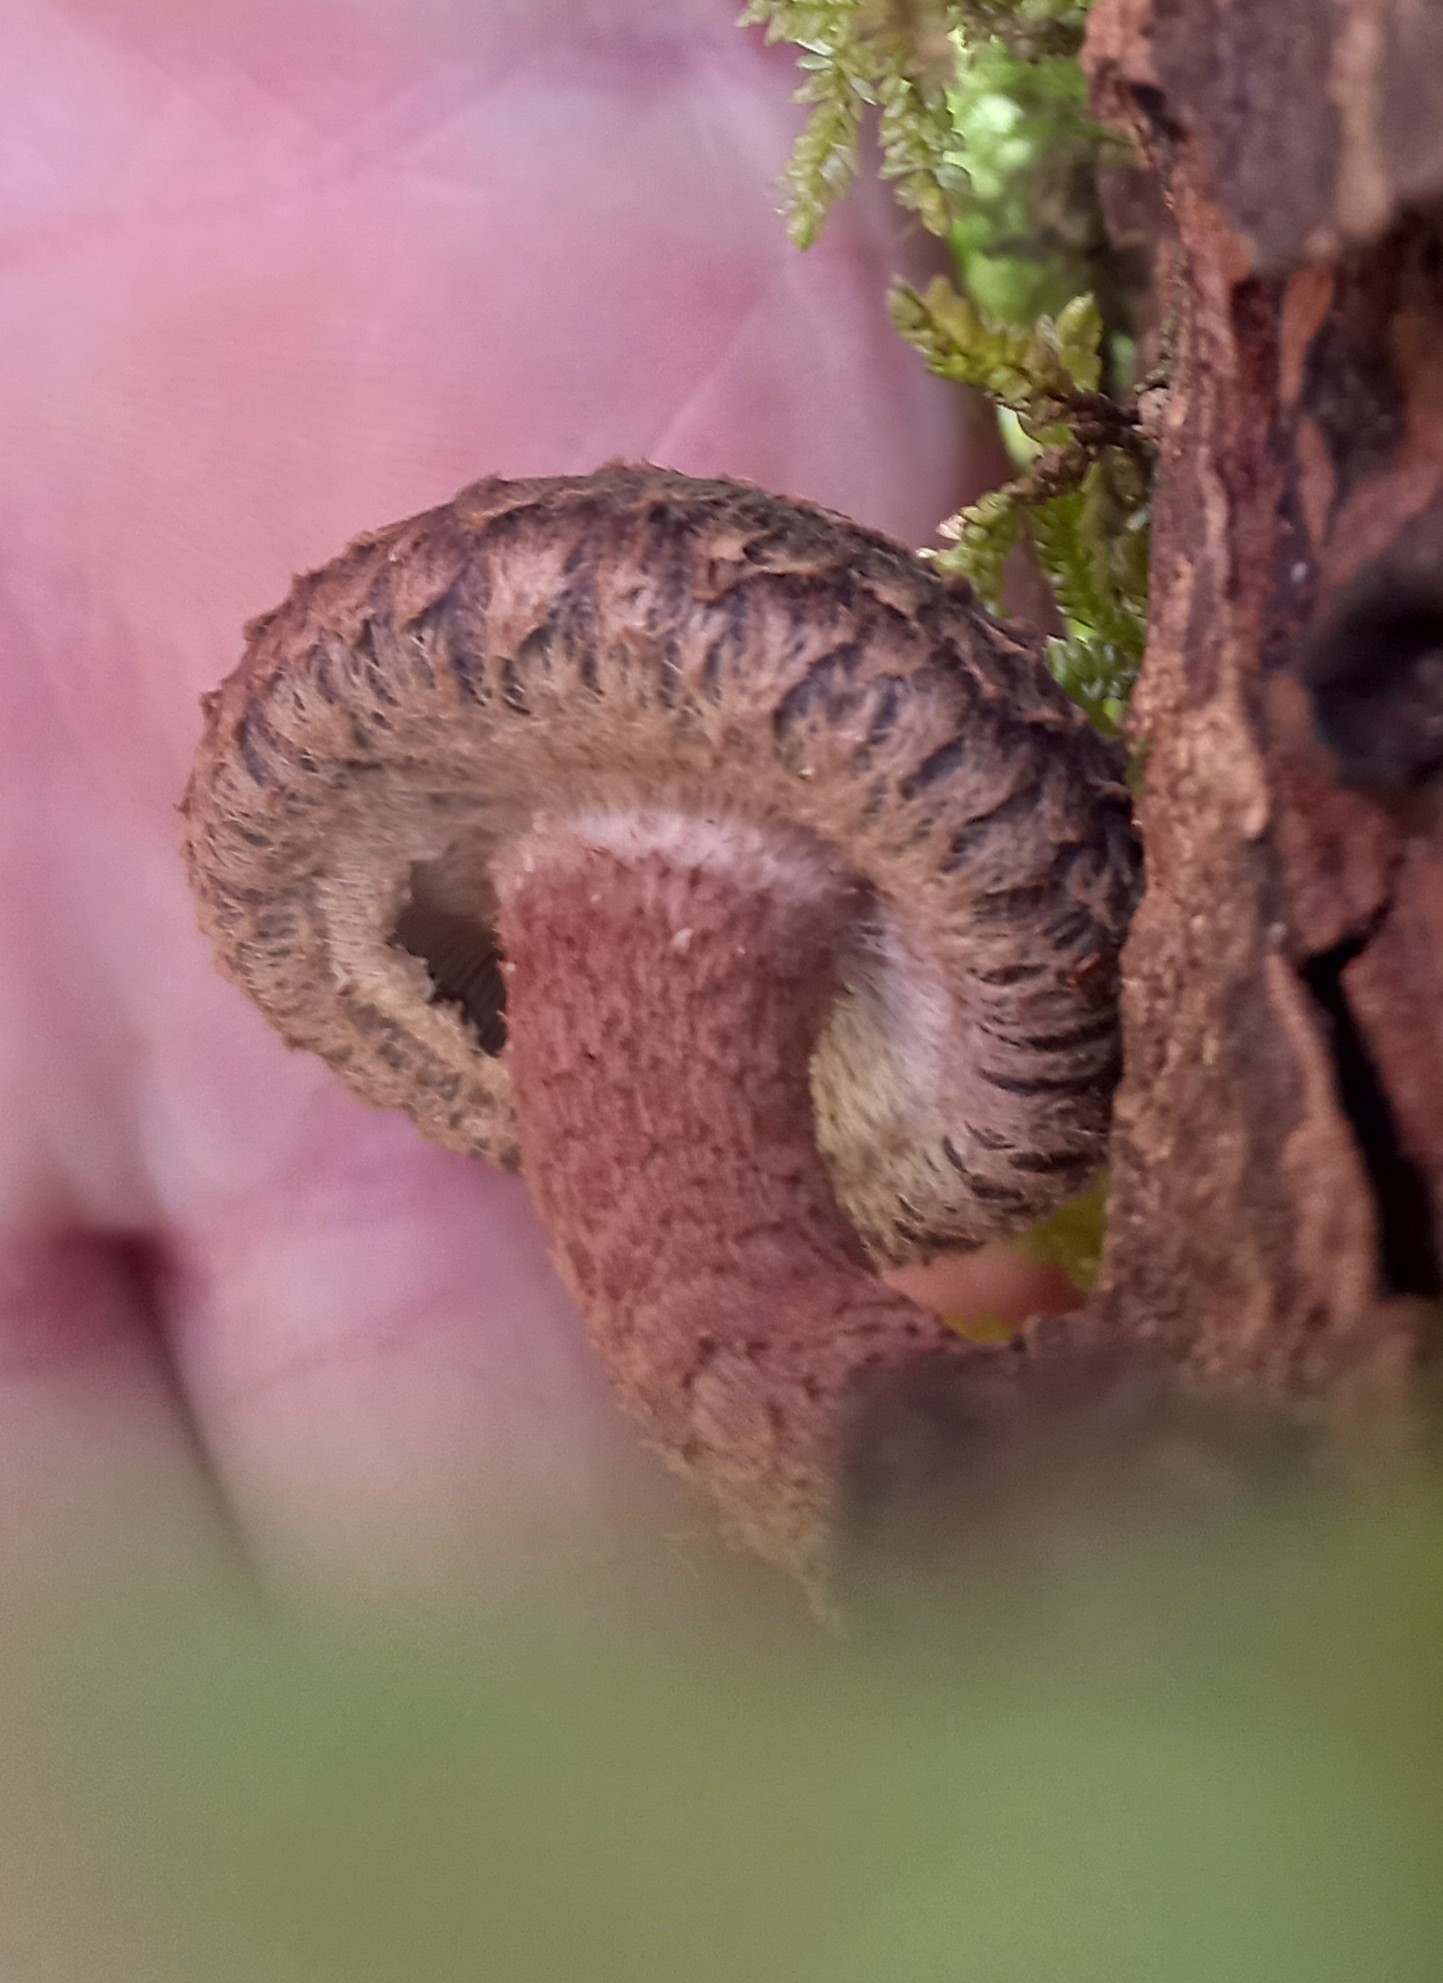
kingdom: Fungi
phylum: Basidiomycota
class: Agaricomycetes
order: Agaricales
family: Omphalotaceae
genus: Lentinula
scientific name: Lentinula novae-zelandiae
